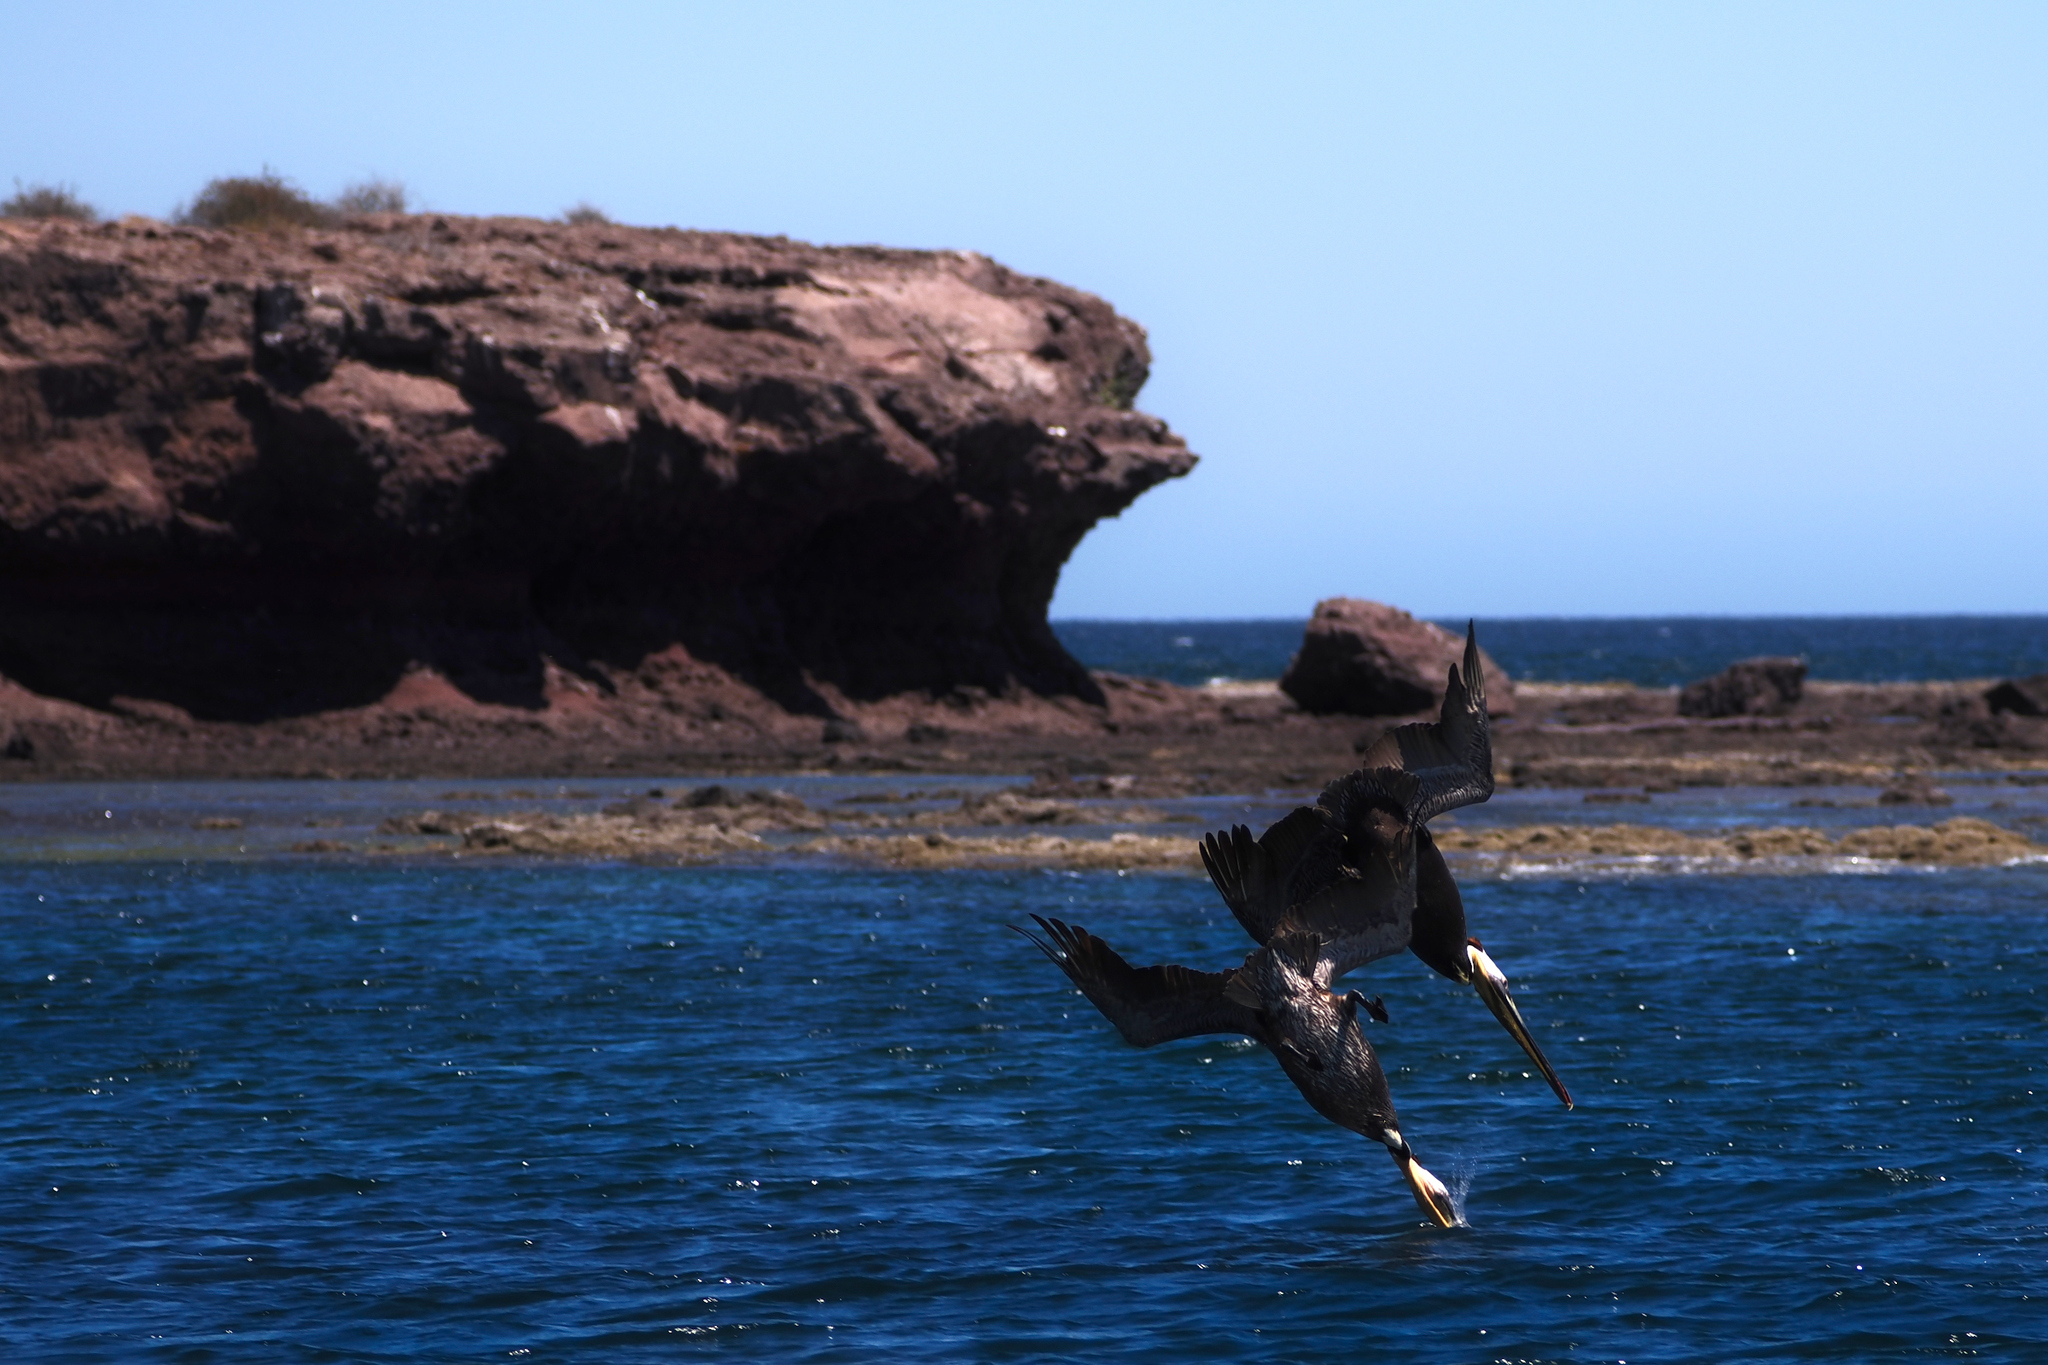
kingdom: Animalia
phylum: Chordata
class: Aves
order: Pelecaniformes
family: Pelecanidae
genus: Pelecanus
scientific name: Pelecanus occidentalis
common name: Brown pelican
